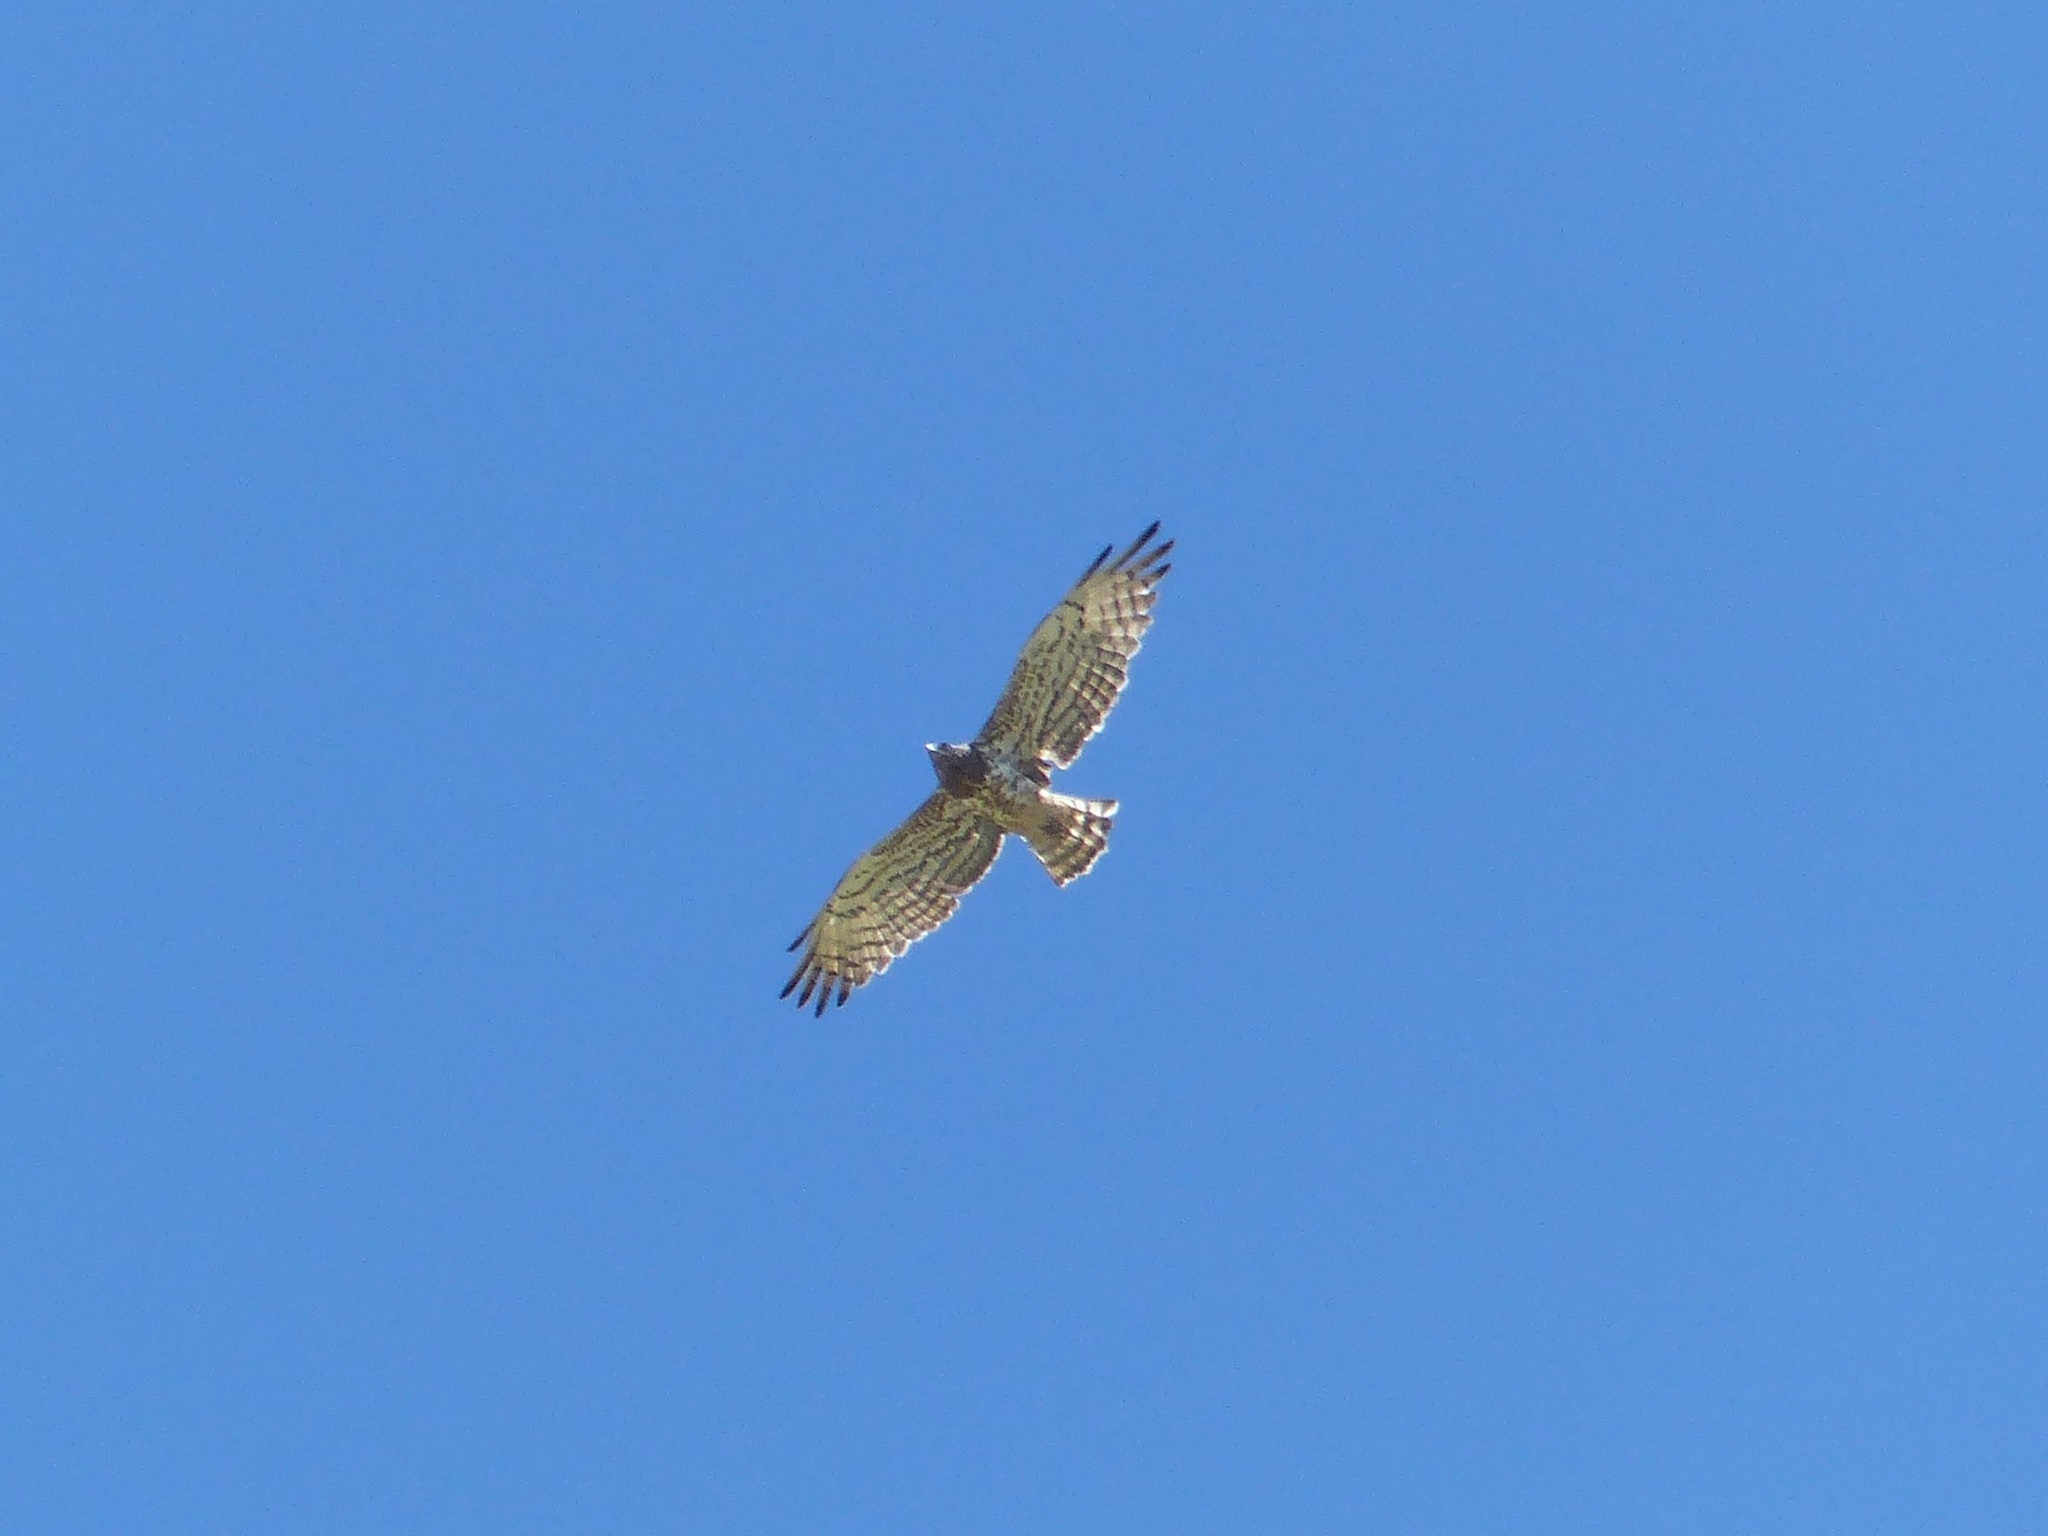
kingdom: Animalia
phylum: Chordata
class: Aves
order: Accipitriformes
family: Accipitridae
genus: Circaetus
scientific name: Circaetus gallicus
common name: Short-toed snake eagle
